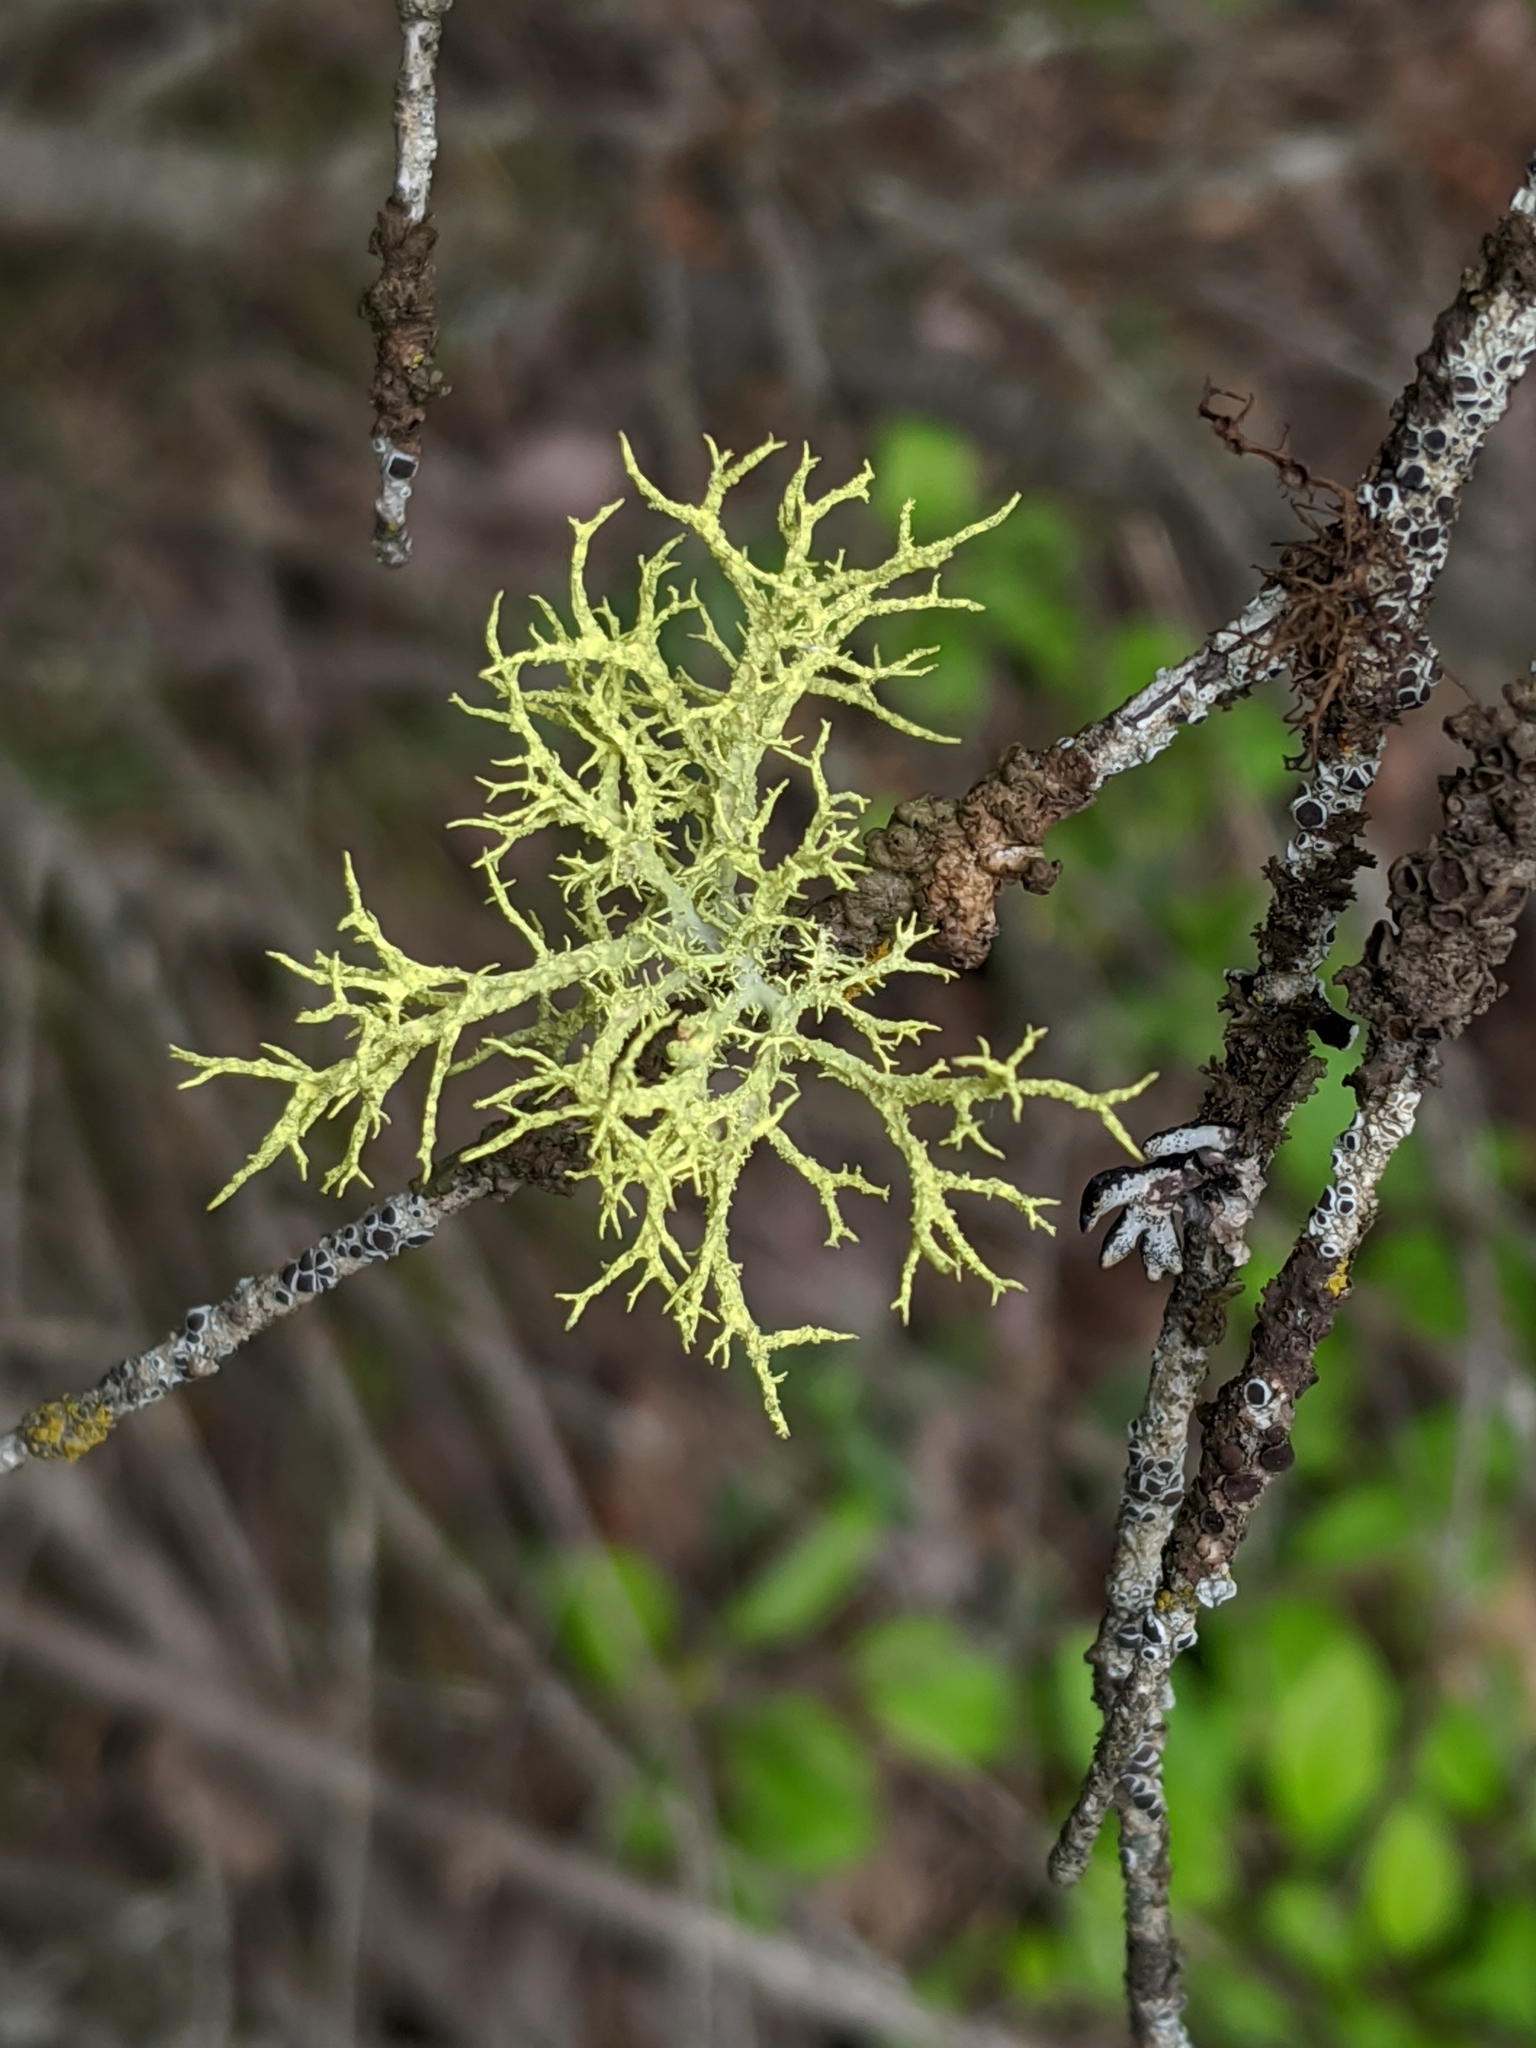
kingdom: Fungi
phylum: Ascomycota
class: Lecanoromycetes
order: Lecanorales
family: Parmeliaceae
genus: Letharia
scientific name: Letharia vulpina
